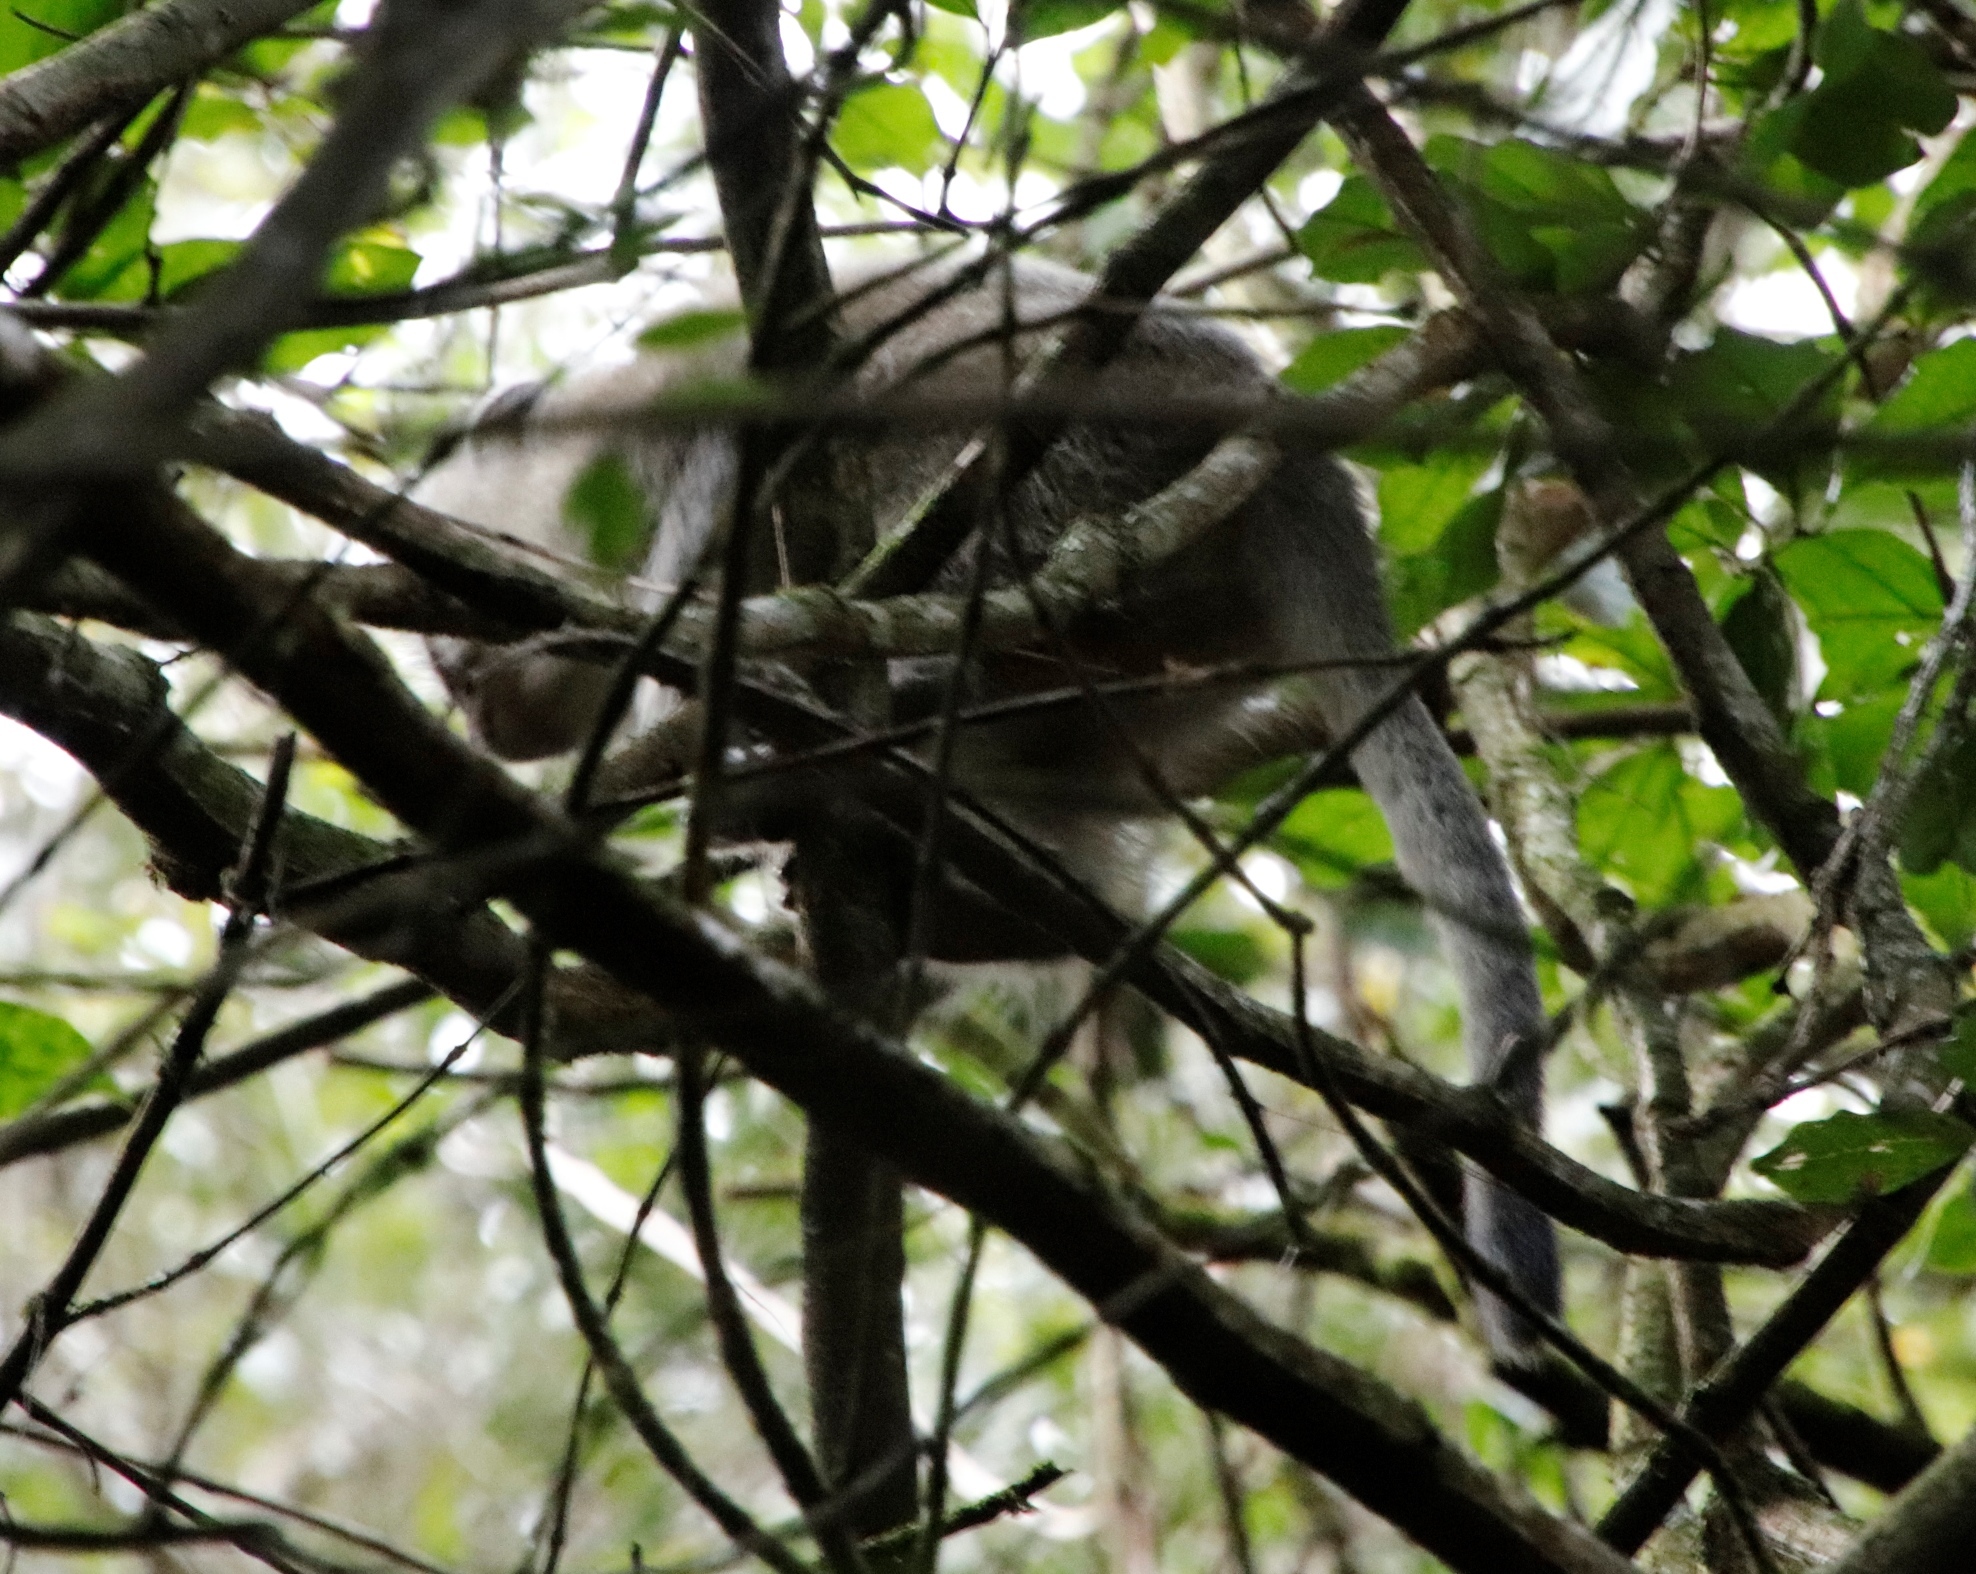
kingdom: Animalia
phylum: Chordata
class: Mammalia
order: Primates
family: Cercopithecidae
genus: Chlorocebus
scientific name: Chlorocebus pygerythrus
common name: Vervet monkey
